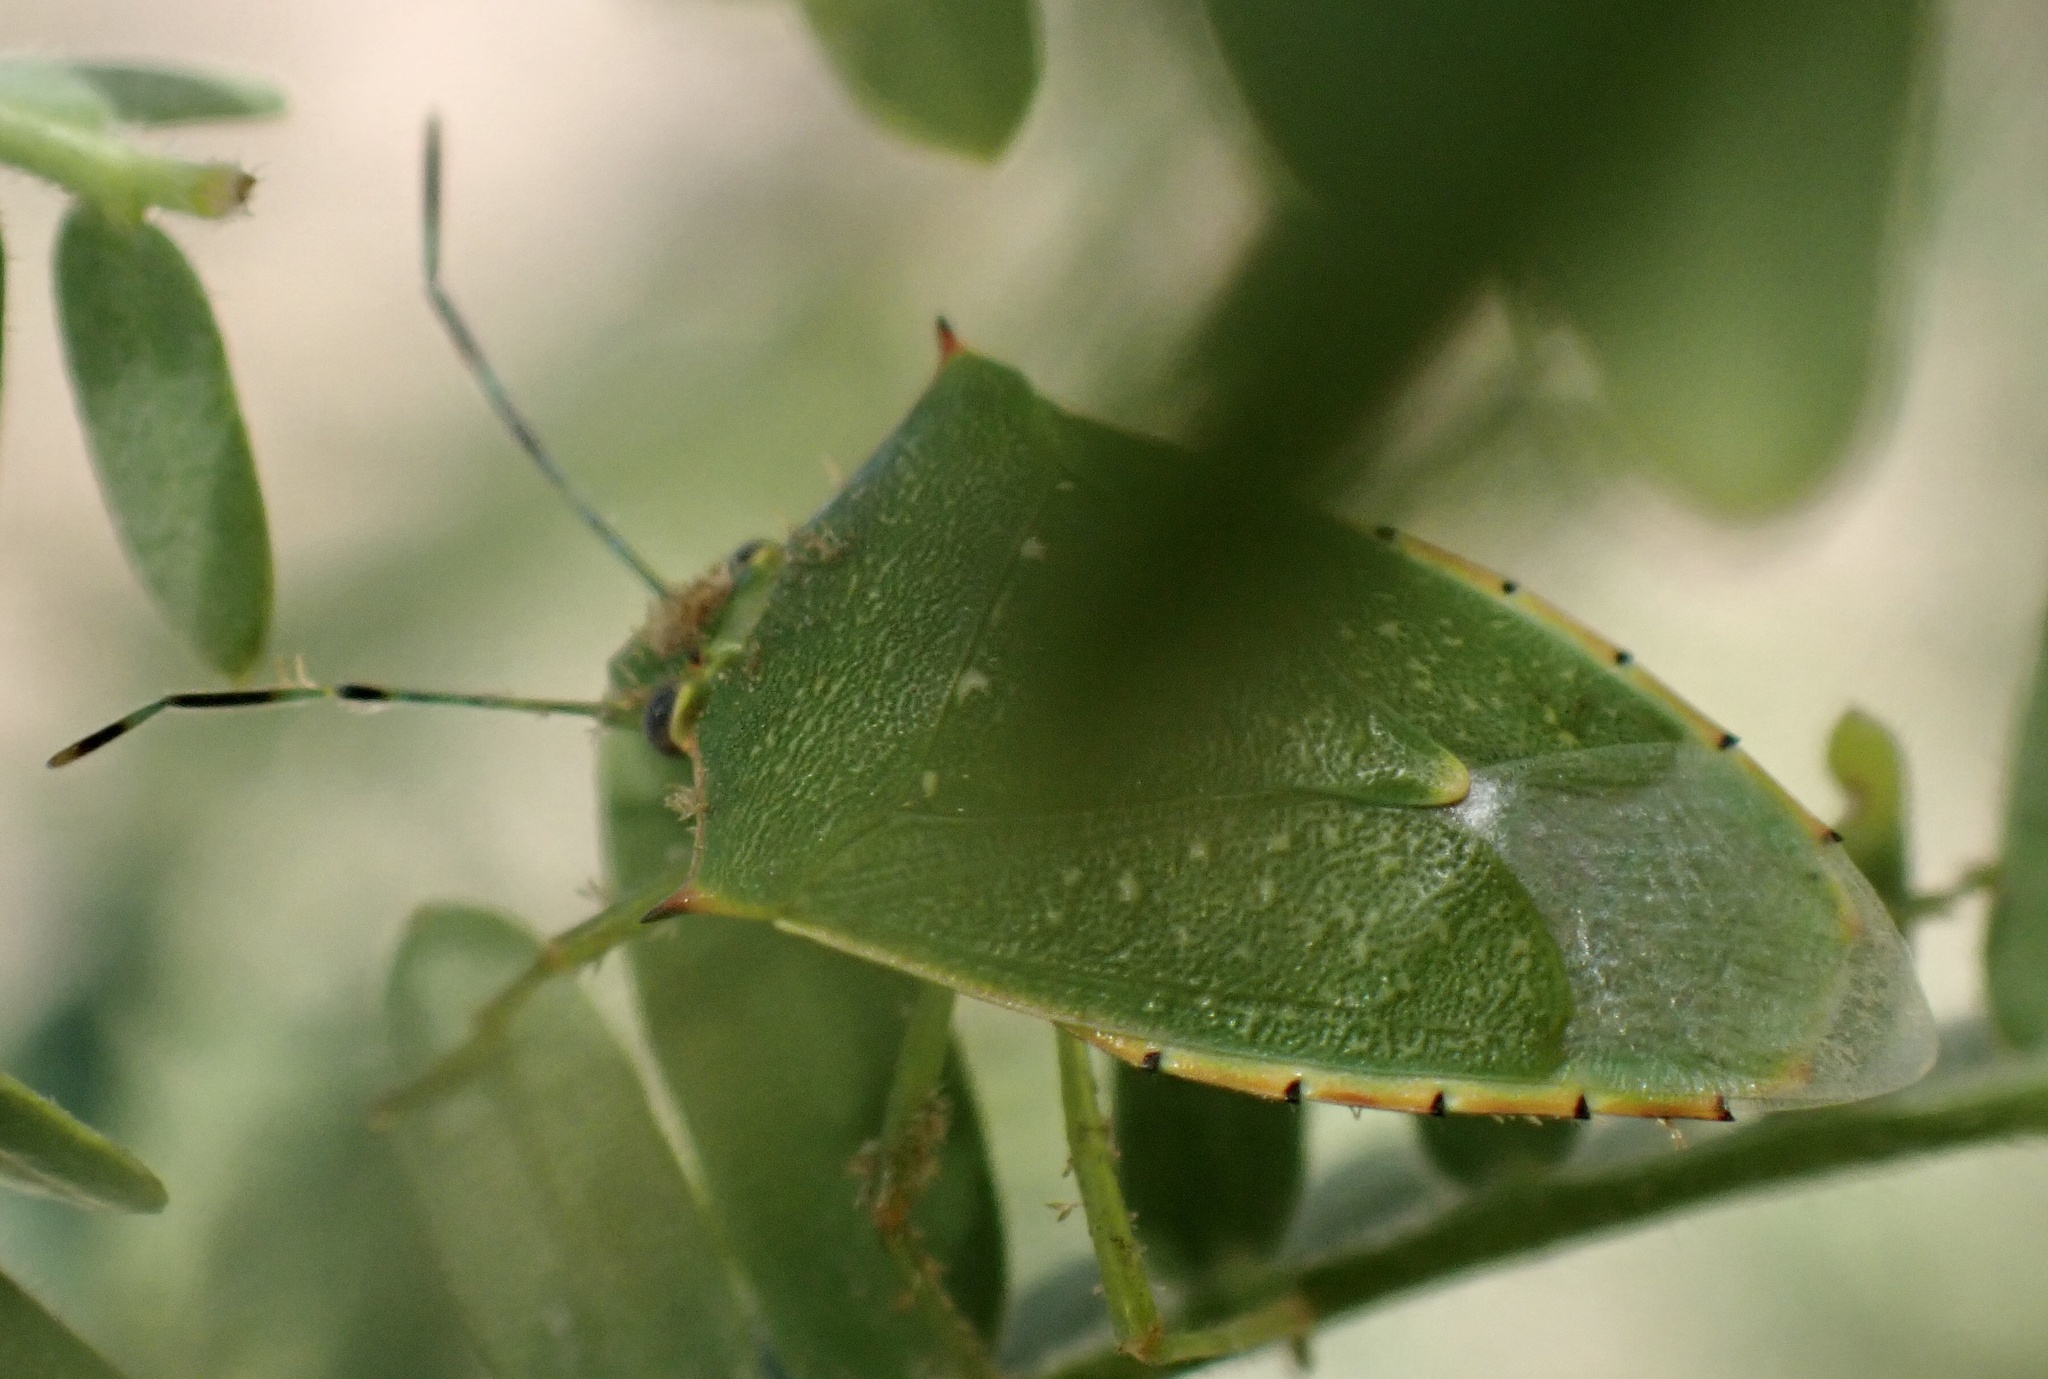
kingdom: Animalia
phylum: Arthropoda
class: Insecta
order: Hemiptera
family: Pentatomidae
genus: Chinavia
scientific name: Chinavia
